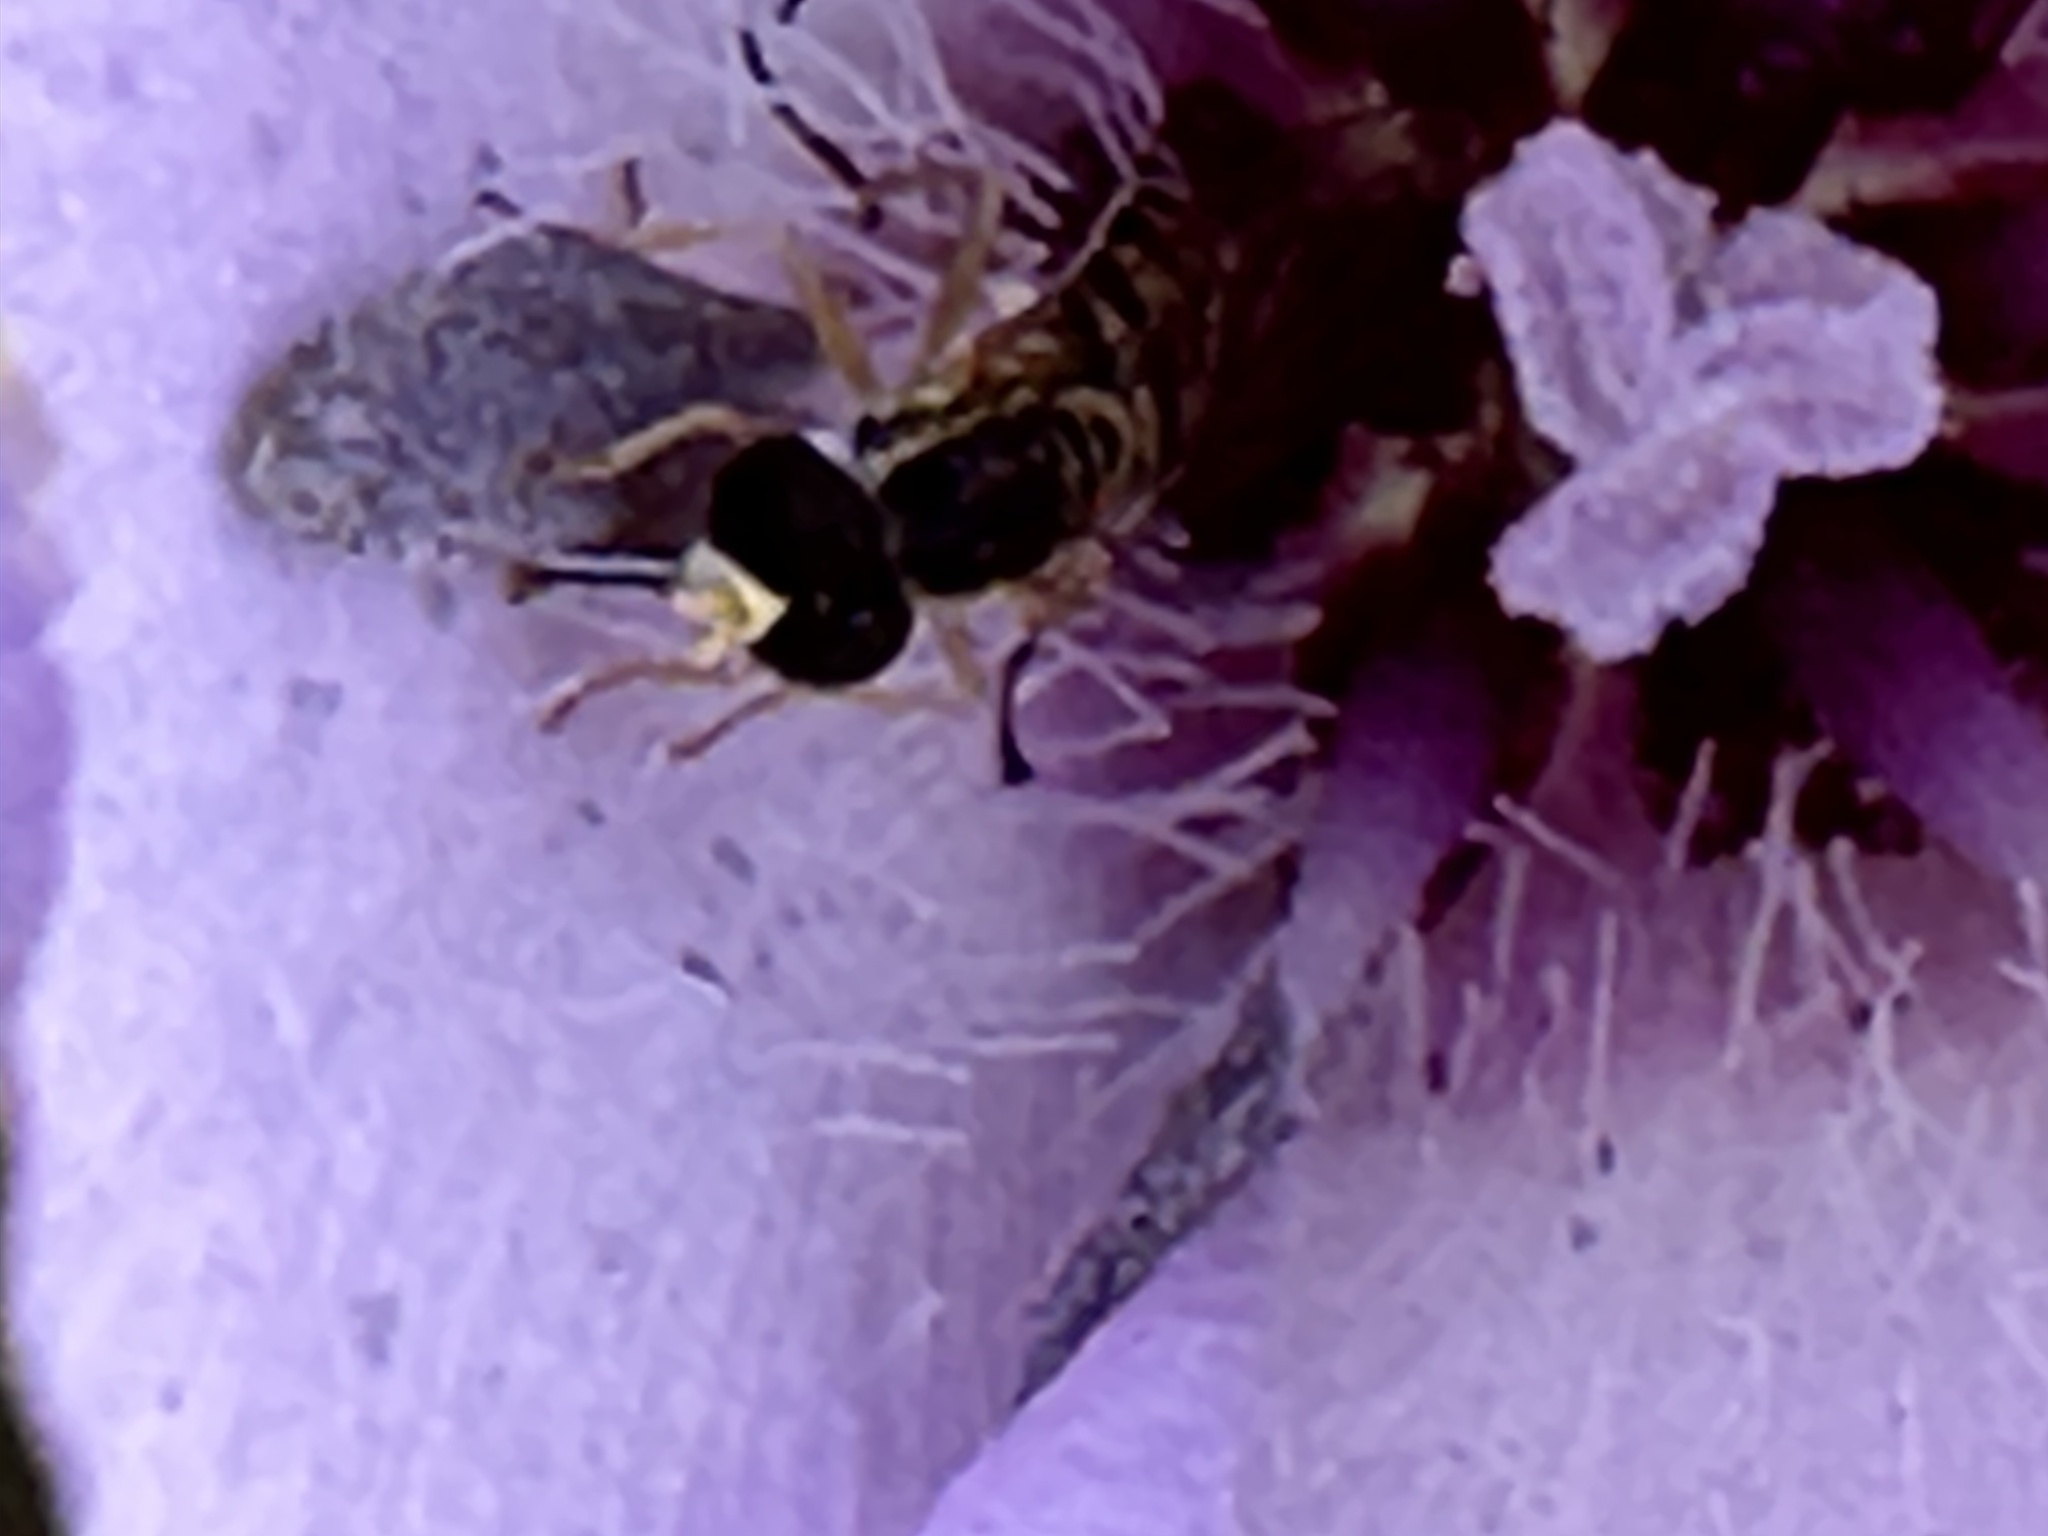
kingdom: Animalia
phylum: Arthropoda
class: Insecta
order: Diptera
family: Syrphidae
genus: Toxomerus
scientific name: Toxomerus marginatus
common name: Syrphid fly
